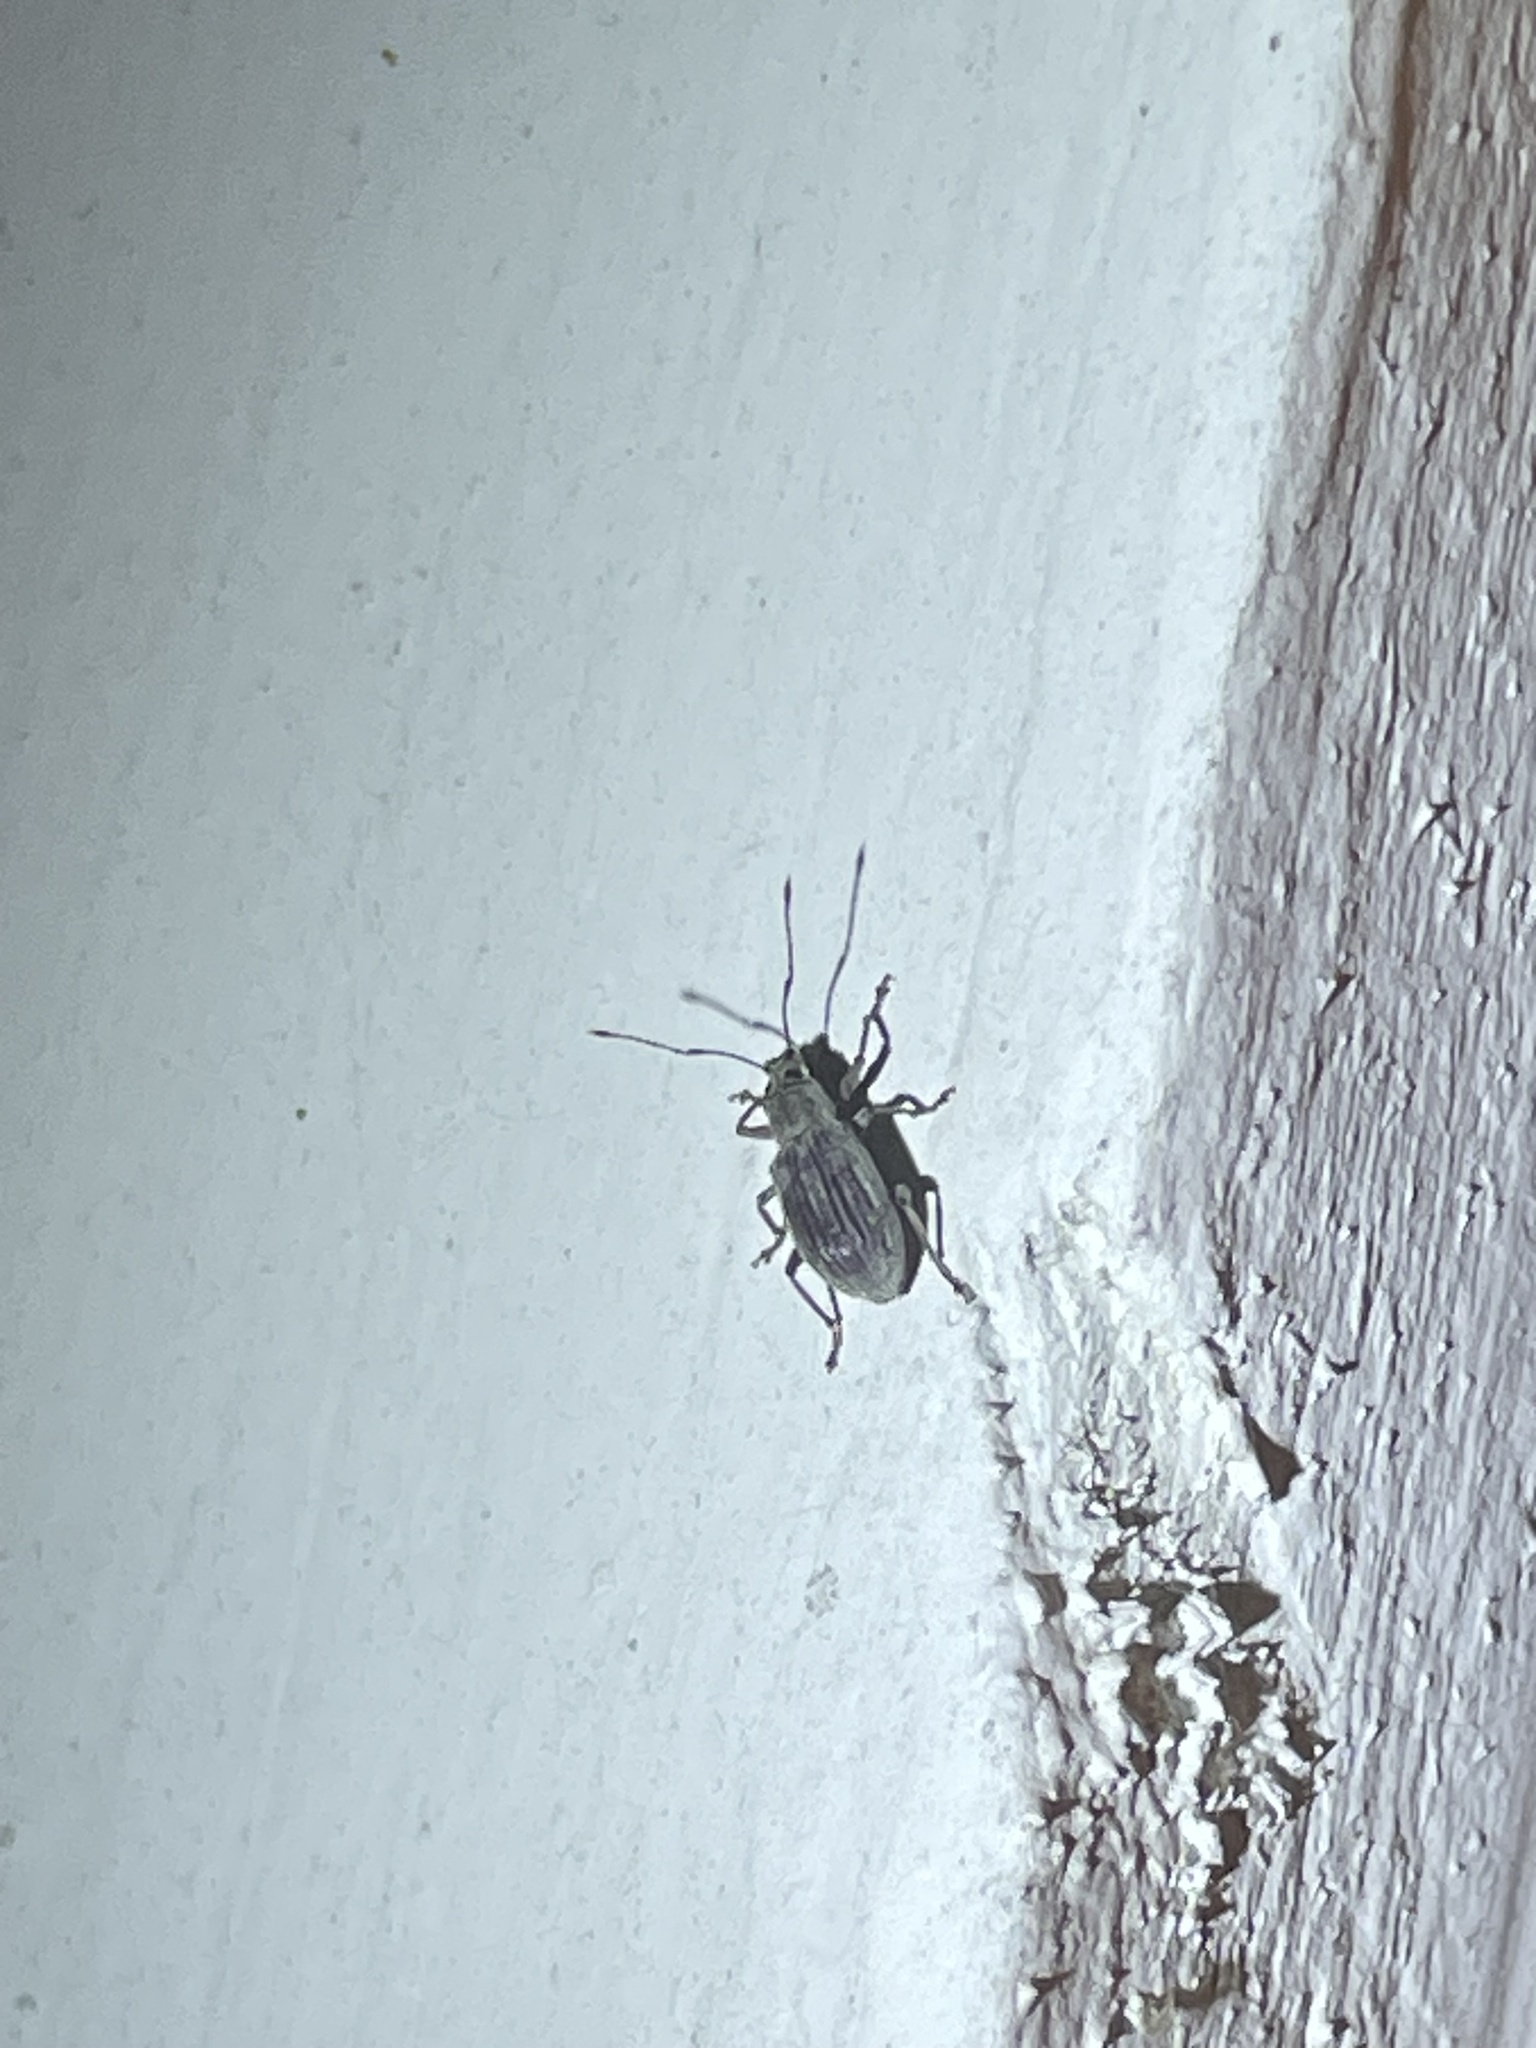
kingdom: Animalia
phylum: Arthropoda
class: Insecta
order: Coleoptera
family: Curculionidae
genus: Cyrtepistomus
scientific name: Cyrtepistomus castaneus
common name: Weevil
